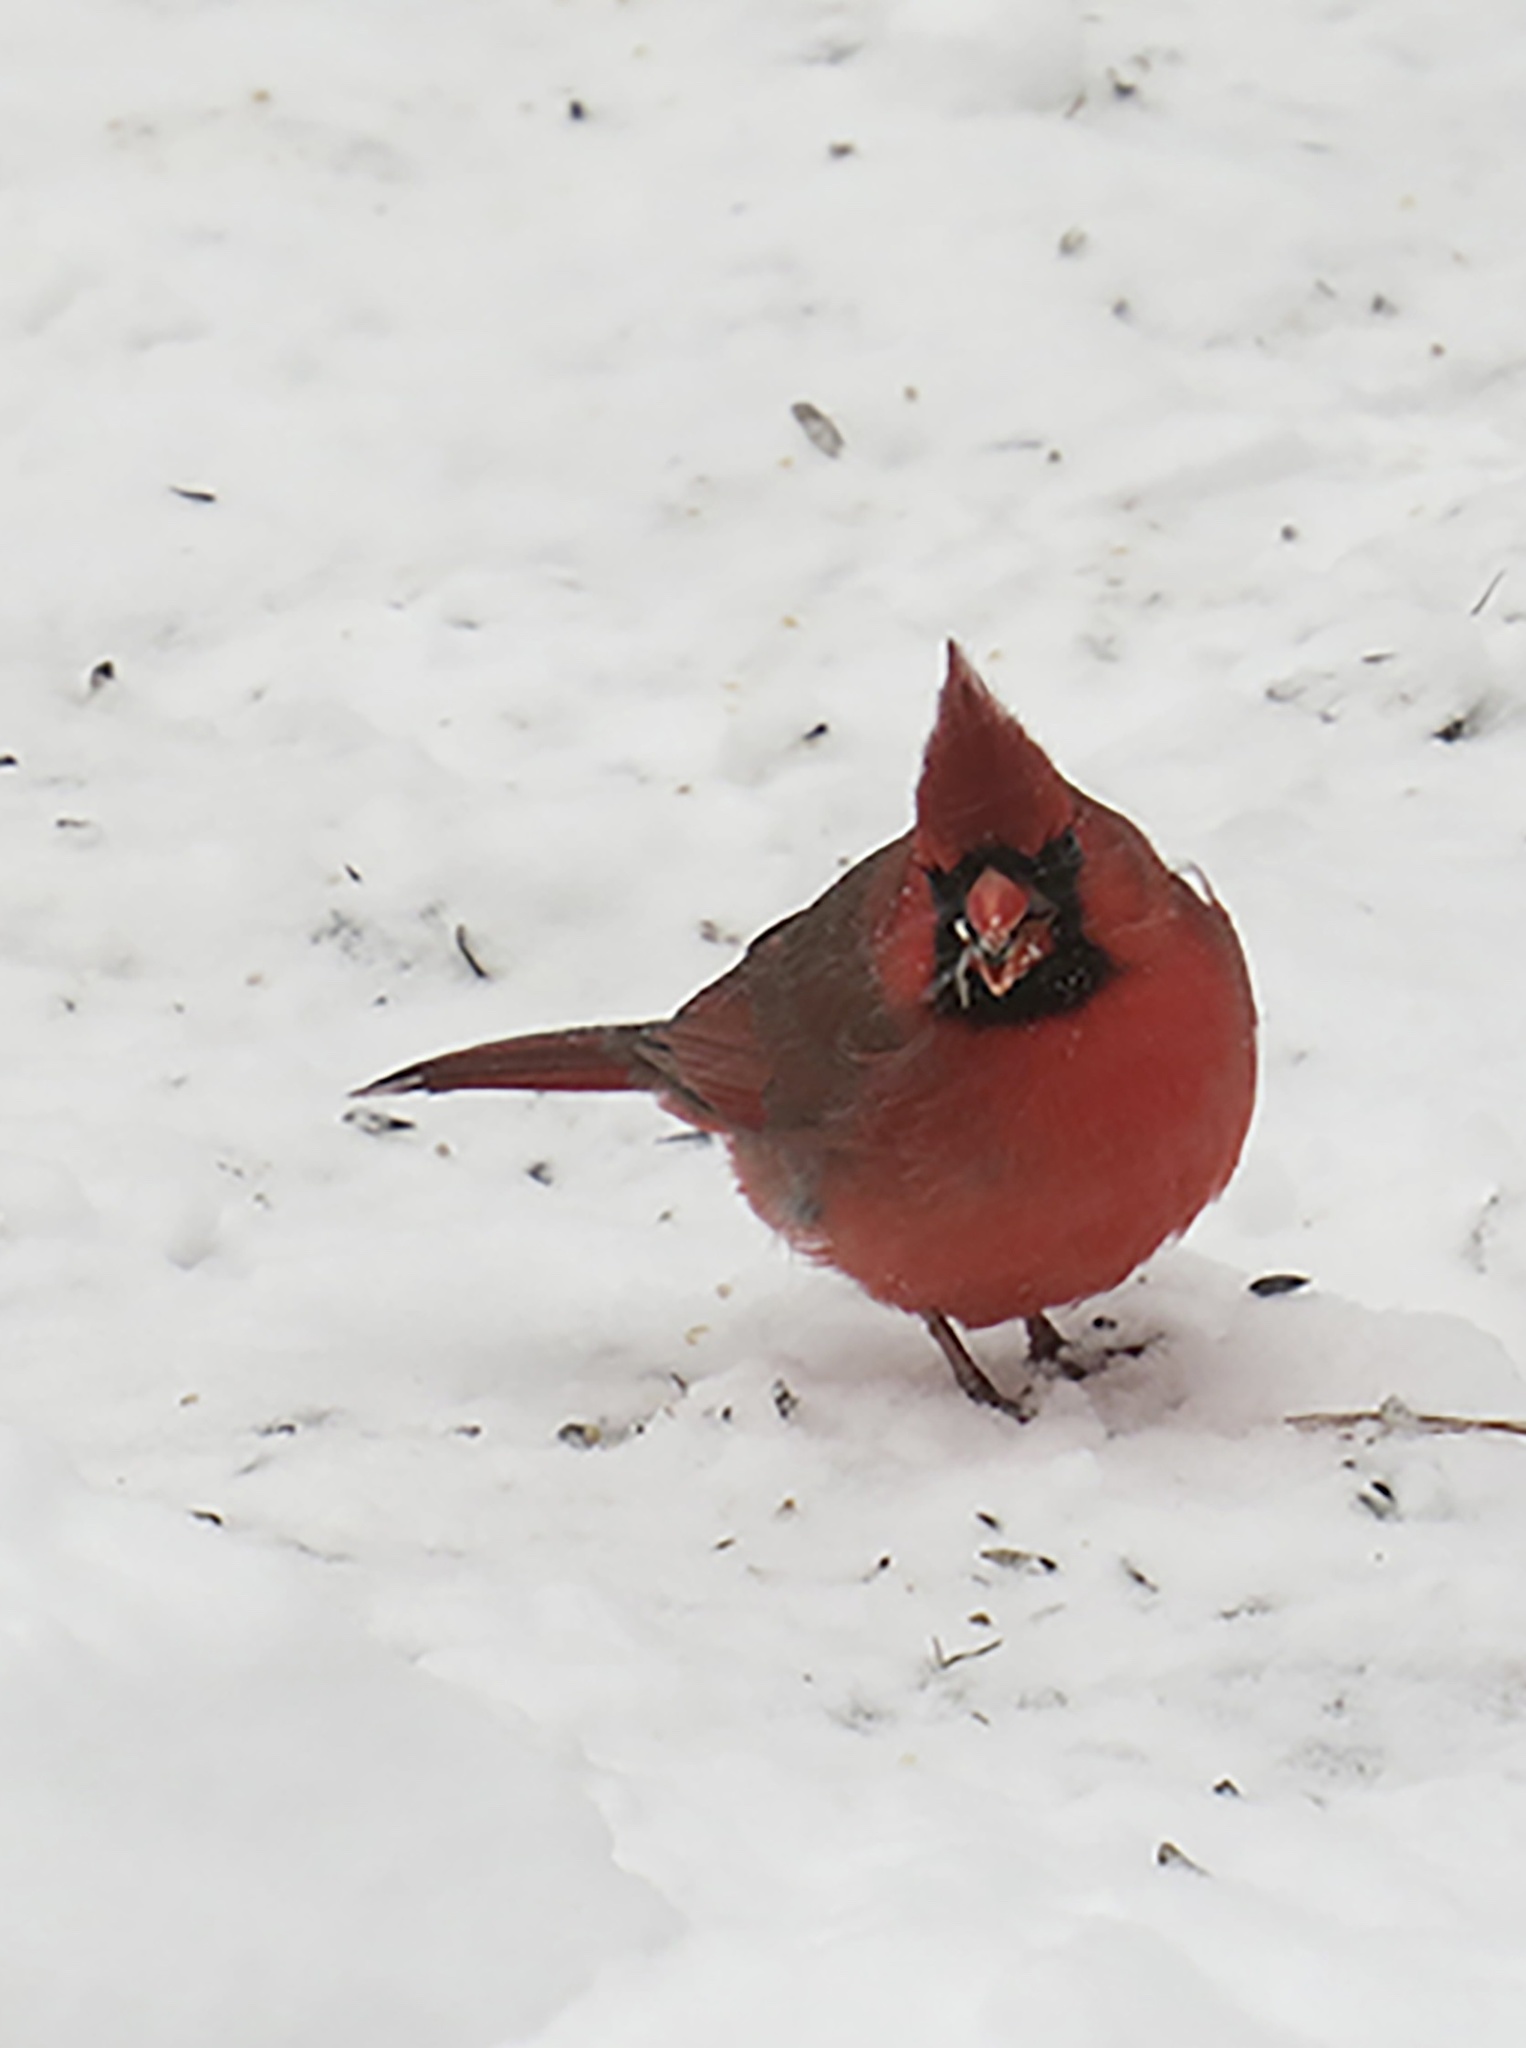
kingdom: Animalia
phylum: Chordata
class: Aves
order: Passeriformes
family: Cardinalidae
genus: Cardinalis
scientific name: Cardinalis cardinalis
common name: Northern cardinal
